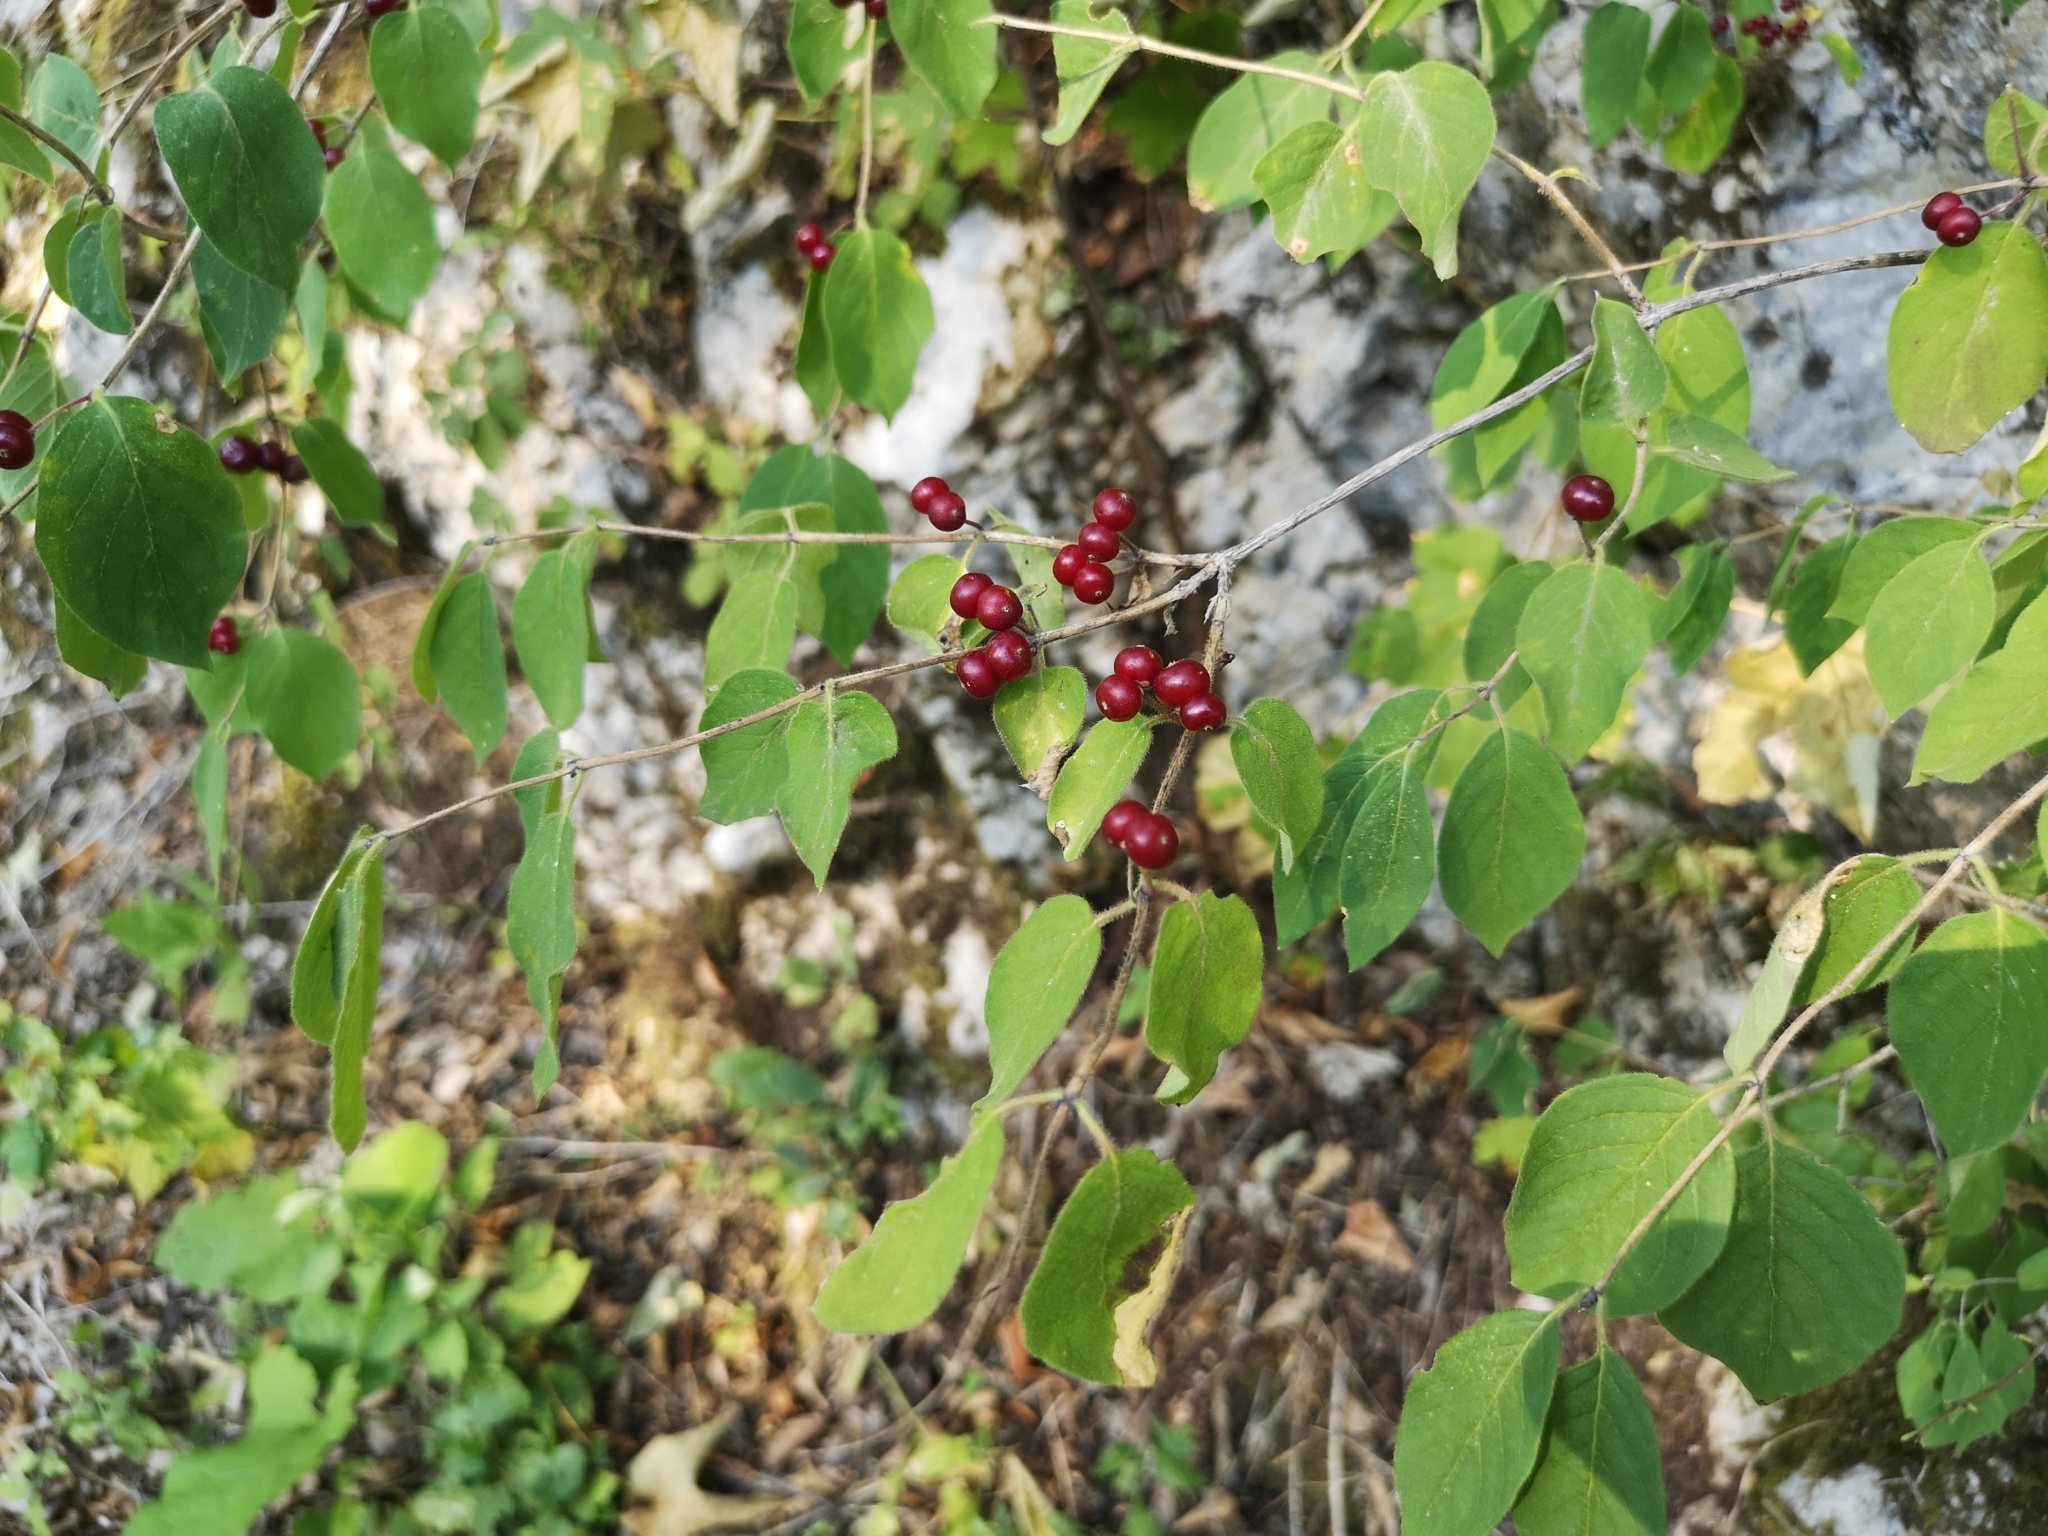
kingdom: Plantae
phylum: Tracheophyta
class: Magnoliopsida
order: Dipsacales
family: Caprifoliaceae
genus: Lonicera
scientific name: Lonicera xylosteum
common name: Fly honeysuckle
